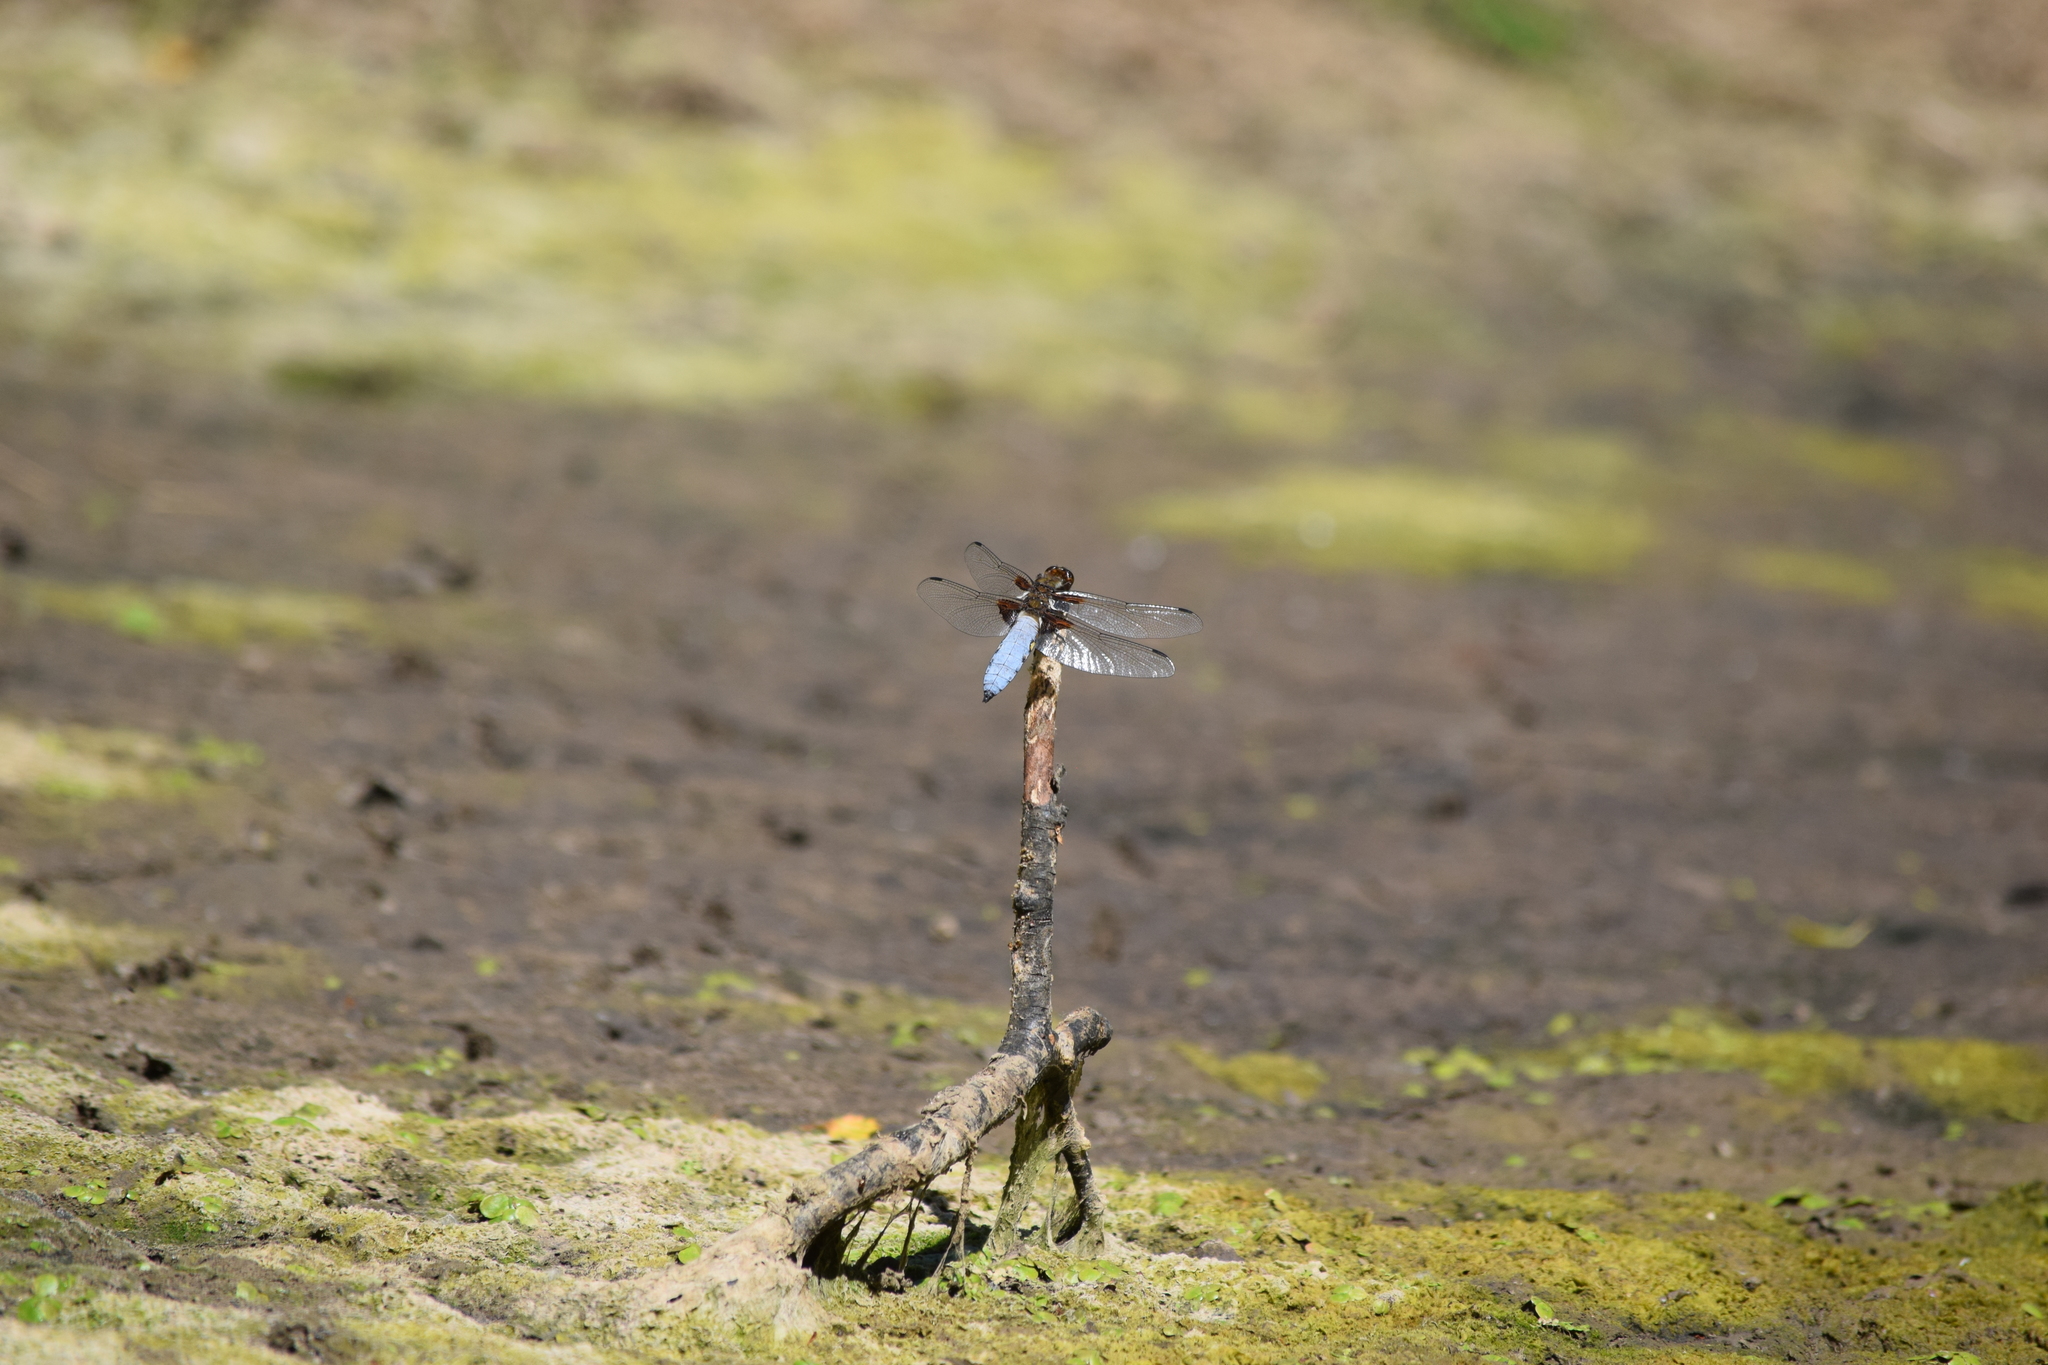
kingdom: Animalia
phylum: Arthropoda
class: Insecta
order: Odonata
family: Libellulidae
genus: Libellula
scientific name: Libellula depressa
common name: Broad-bodied chaser
